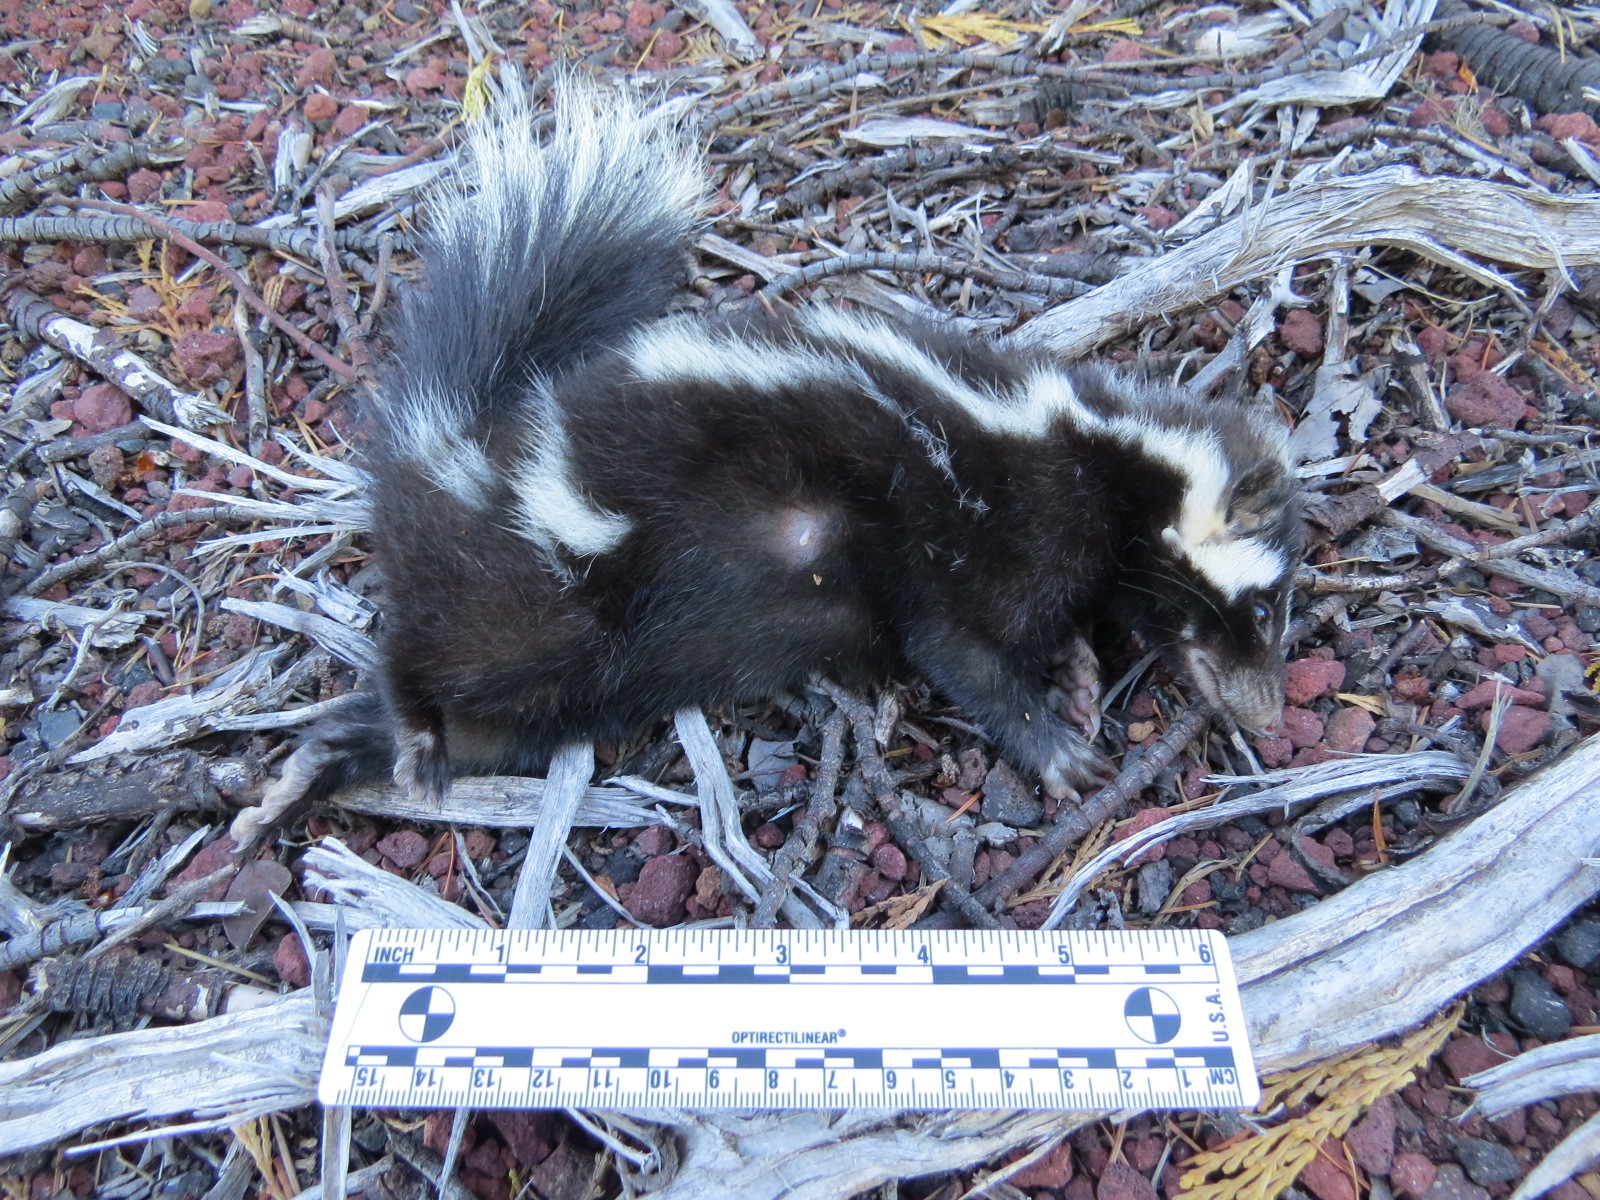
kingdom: Animalia
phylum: Chordata
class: Mammalia
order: Carnivora
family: Mephitidae
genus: Spilogale
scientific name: Spilogale gracilis
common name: Western spotted skunk
